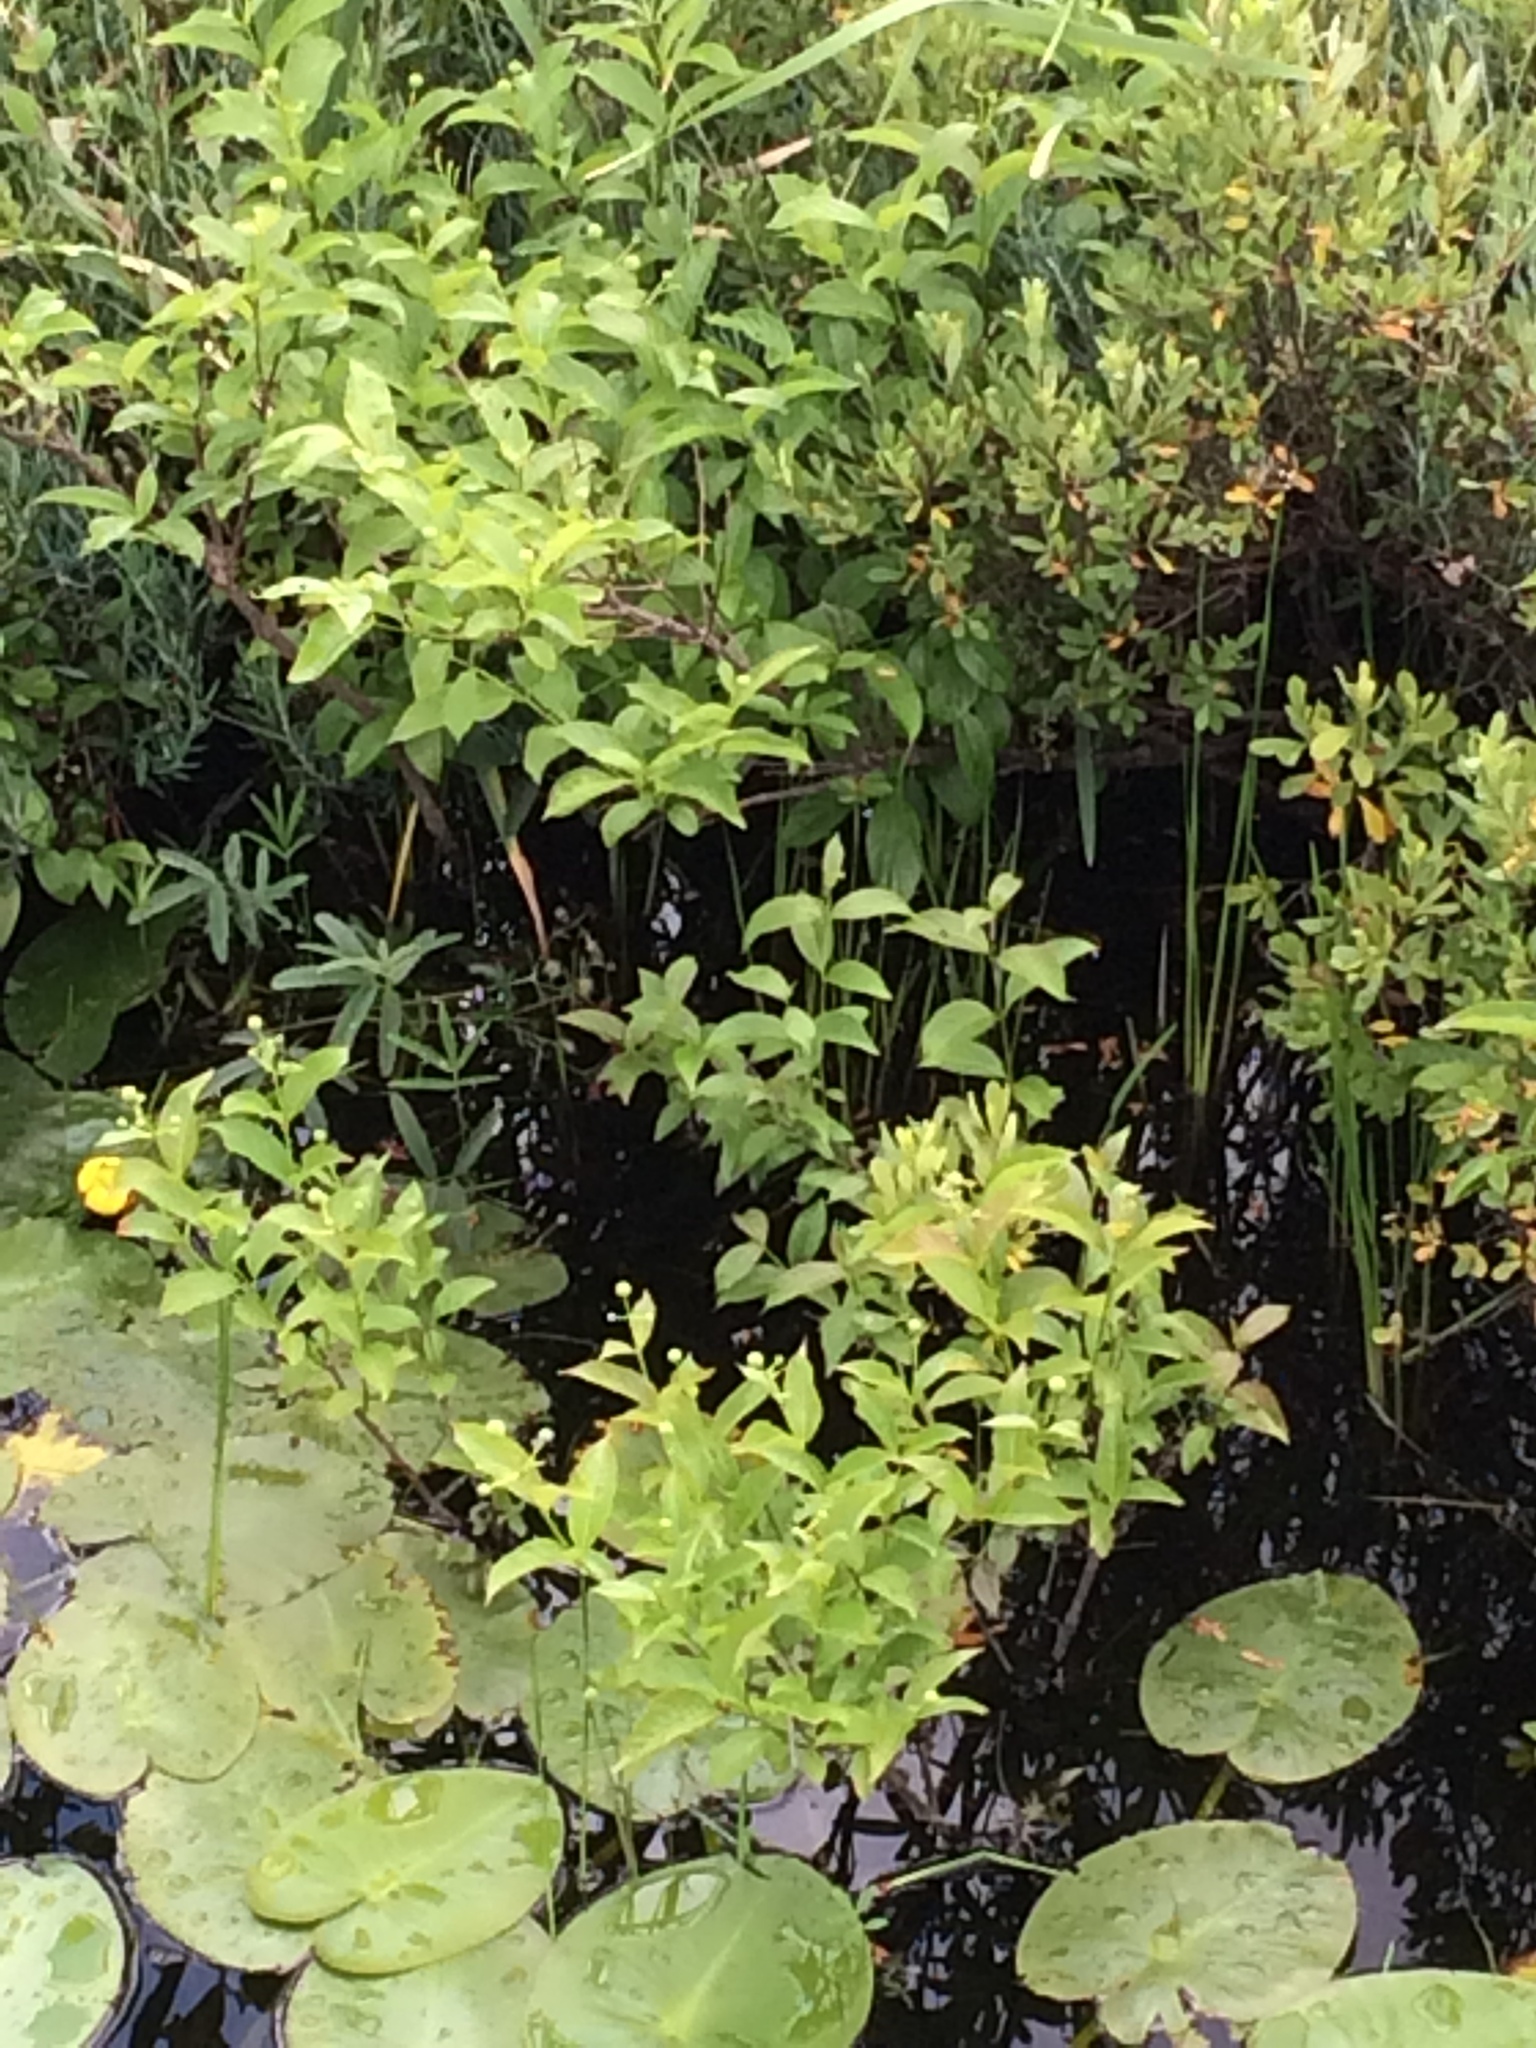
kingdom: Plantae
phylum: Tracheophyta
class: Magnoliopsida
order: Gentianales
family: Rubiaceae
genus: Cephalanthus
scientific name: Cephalanthus occidentalis
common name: Button-willow
